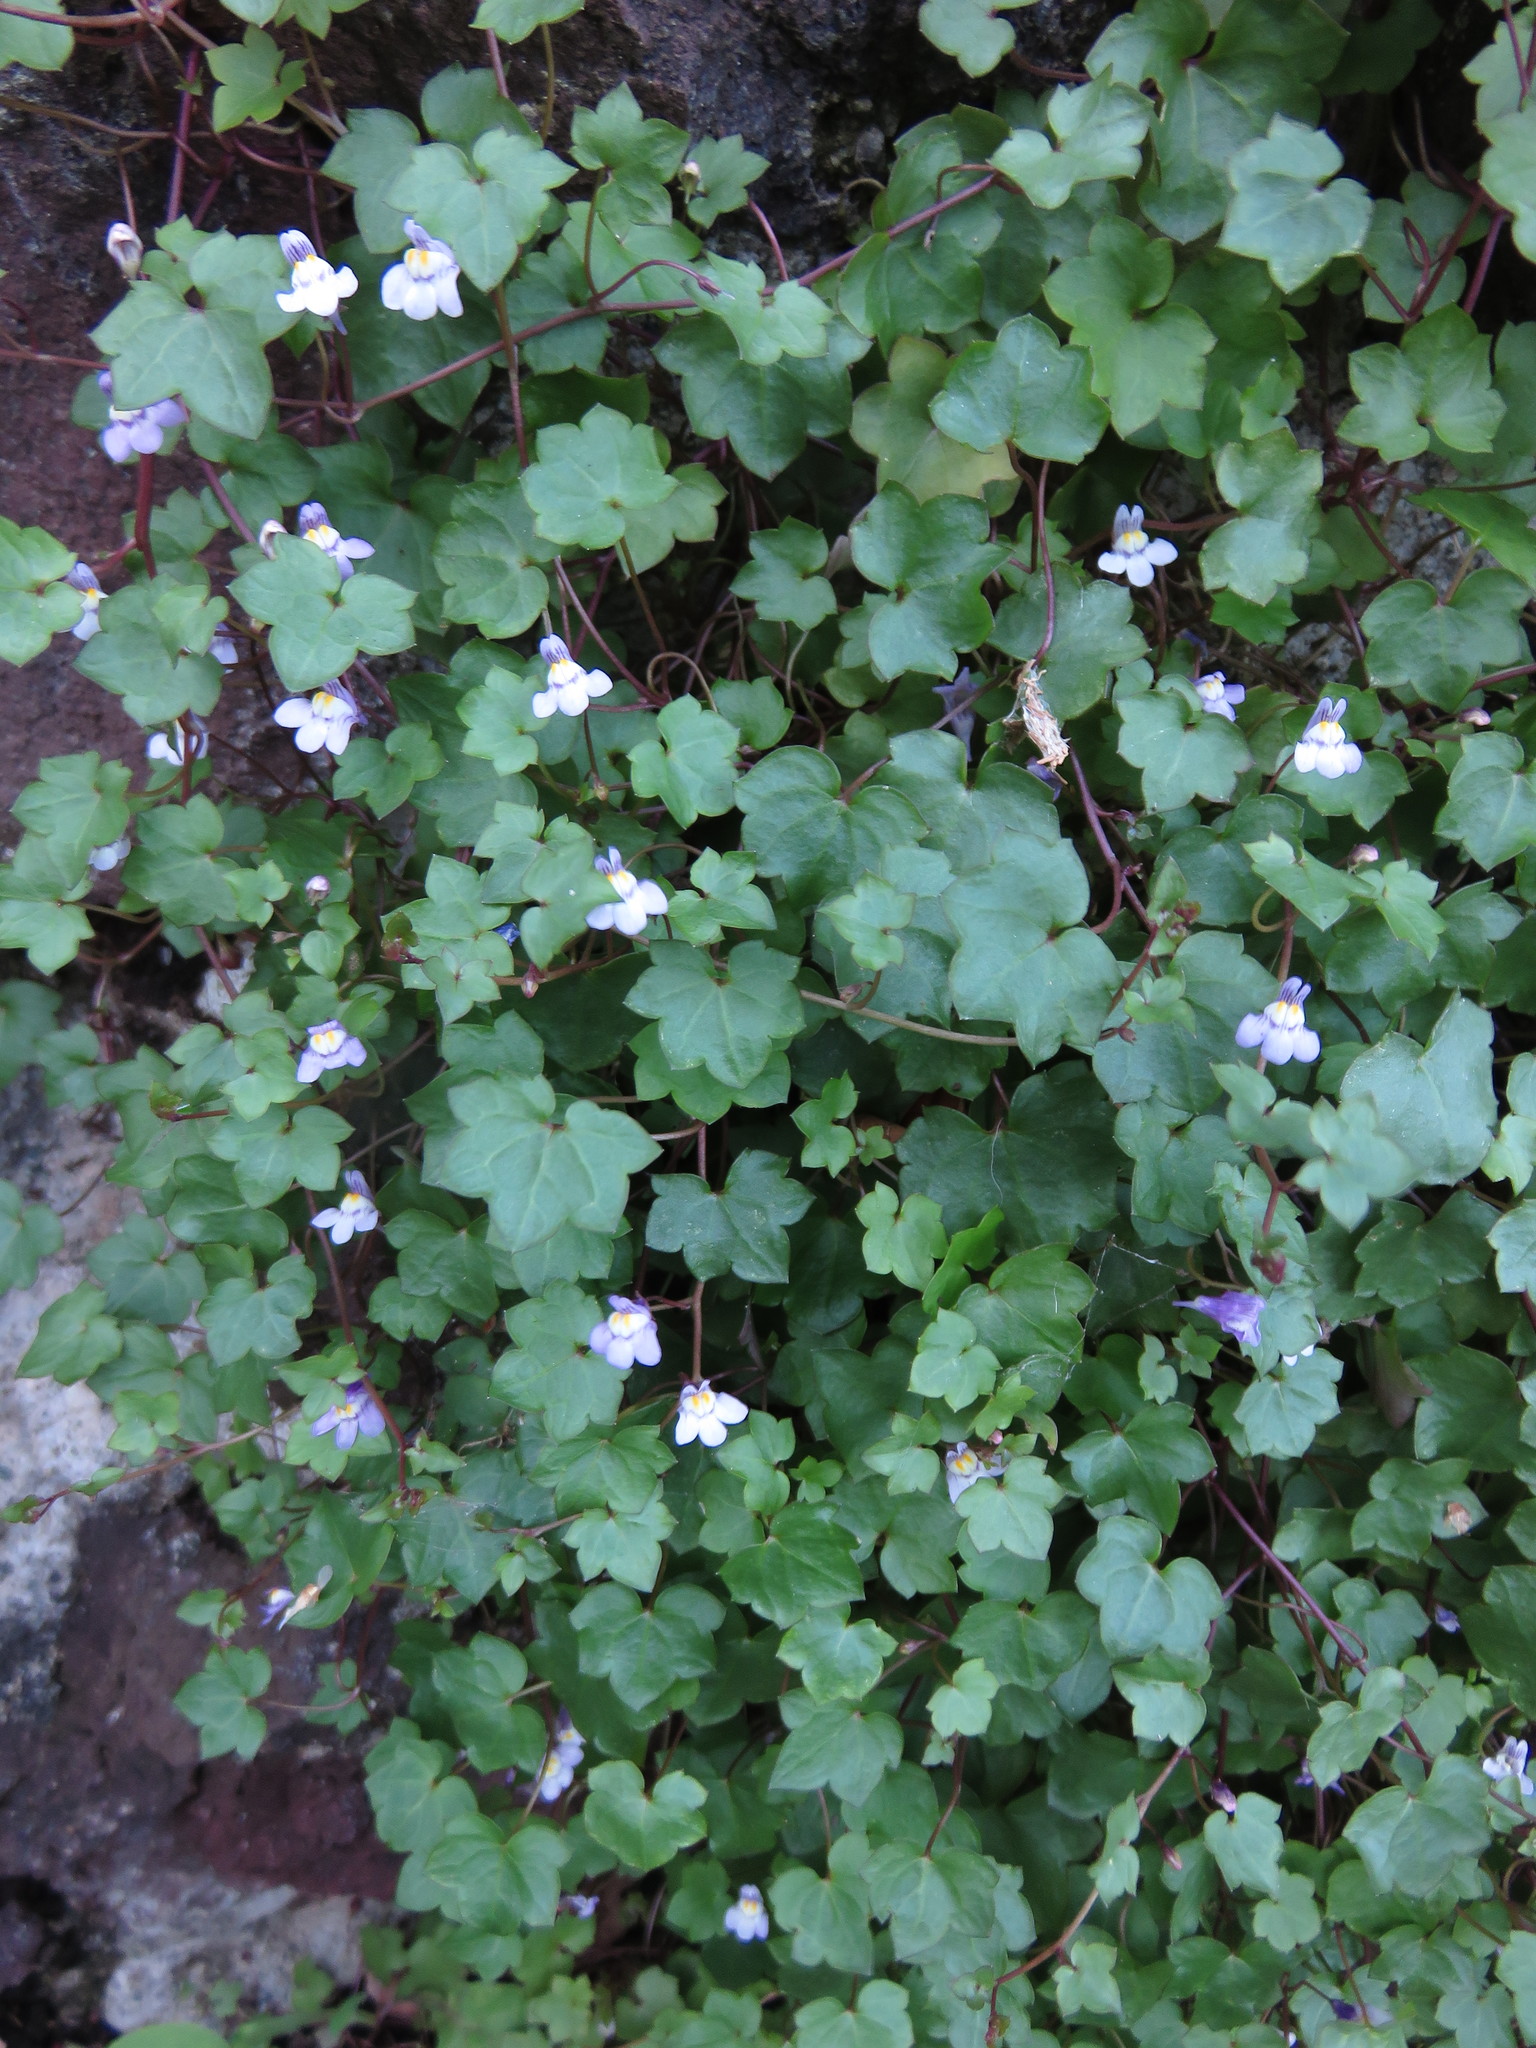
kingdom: Plantae
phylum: Tracheophyta
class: Magnoliopsida
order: Lamiales
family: Plantaginaceae
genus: Cymbalaria
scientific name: Cymbalaria muralis
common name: Ivy-leaved toadflax
